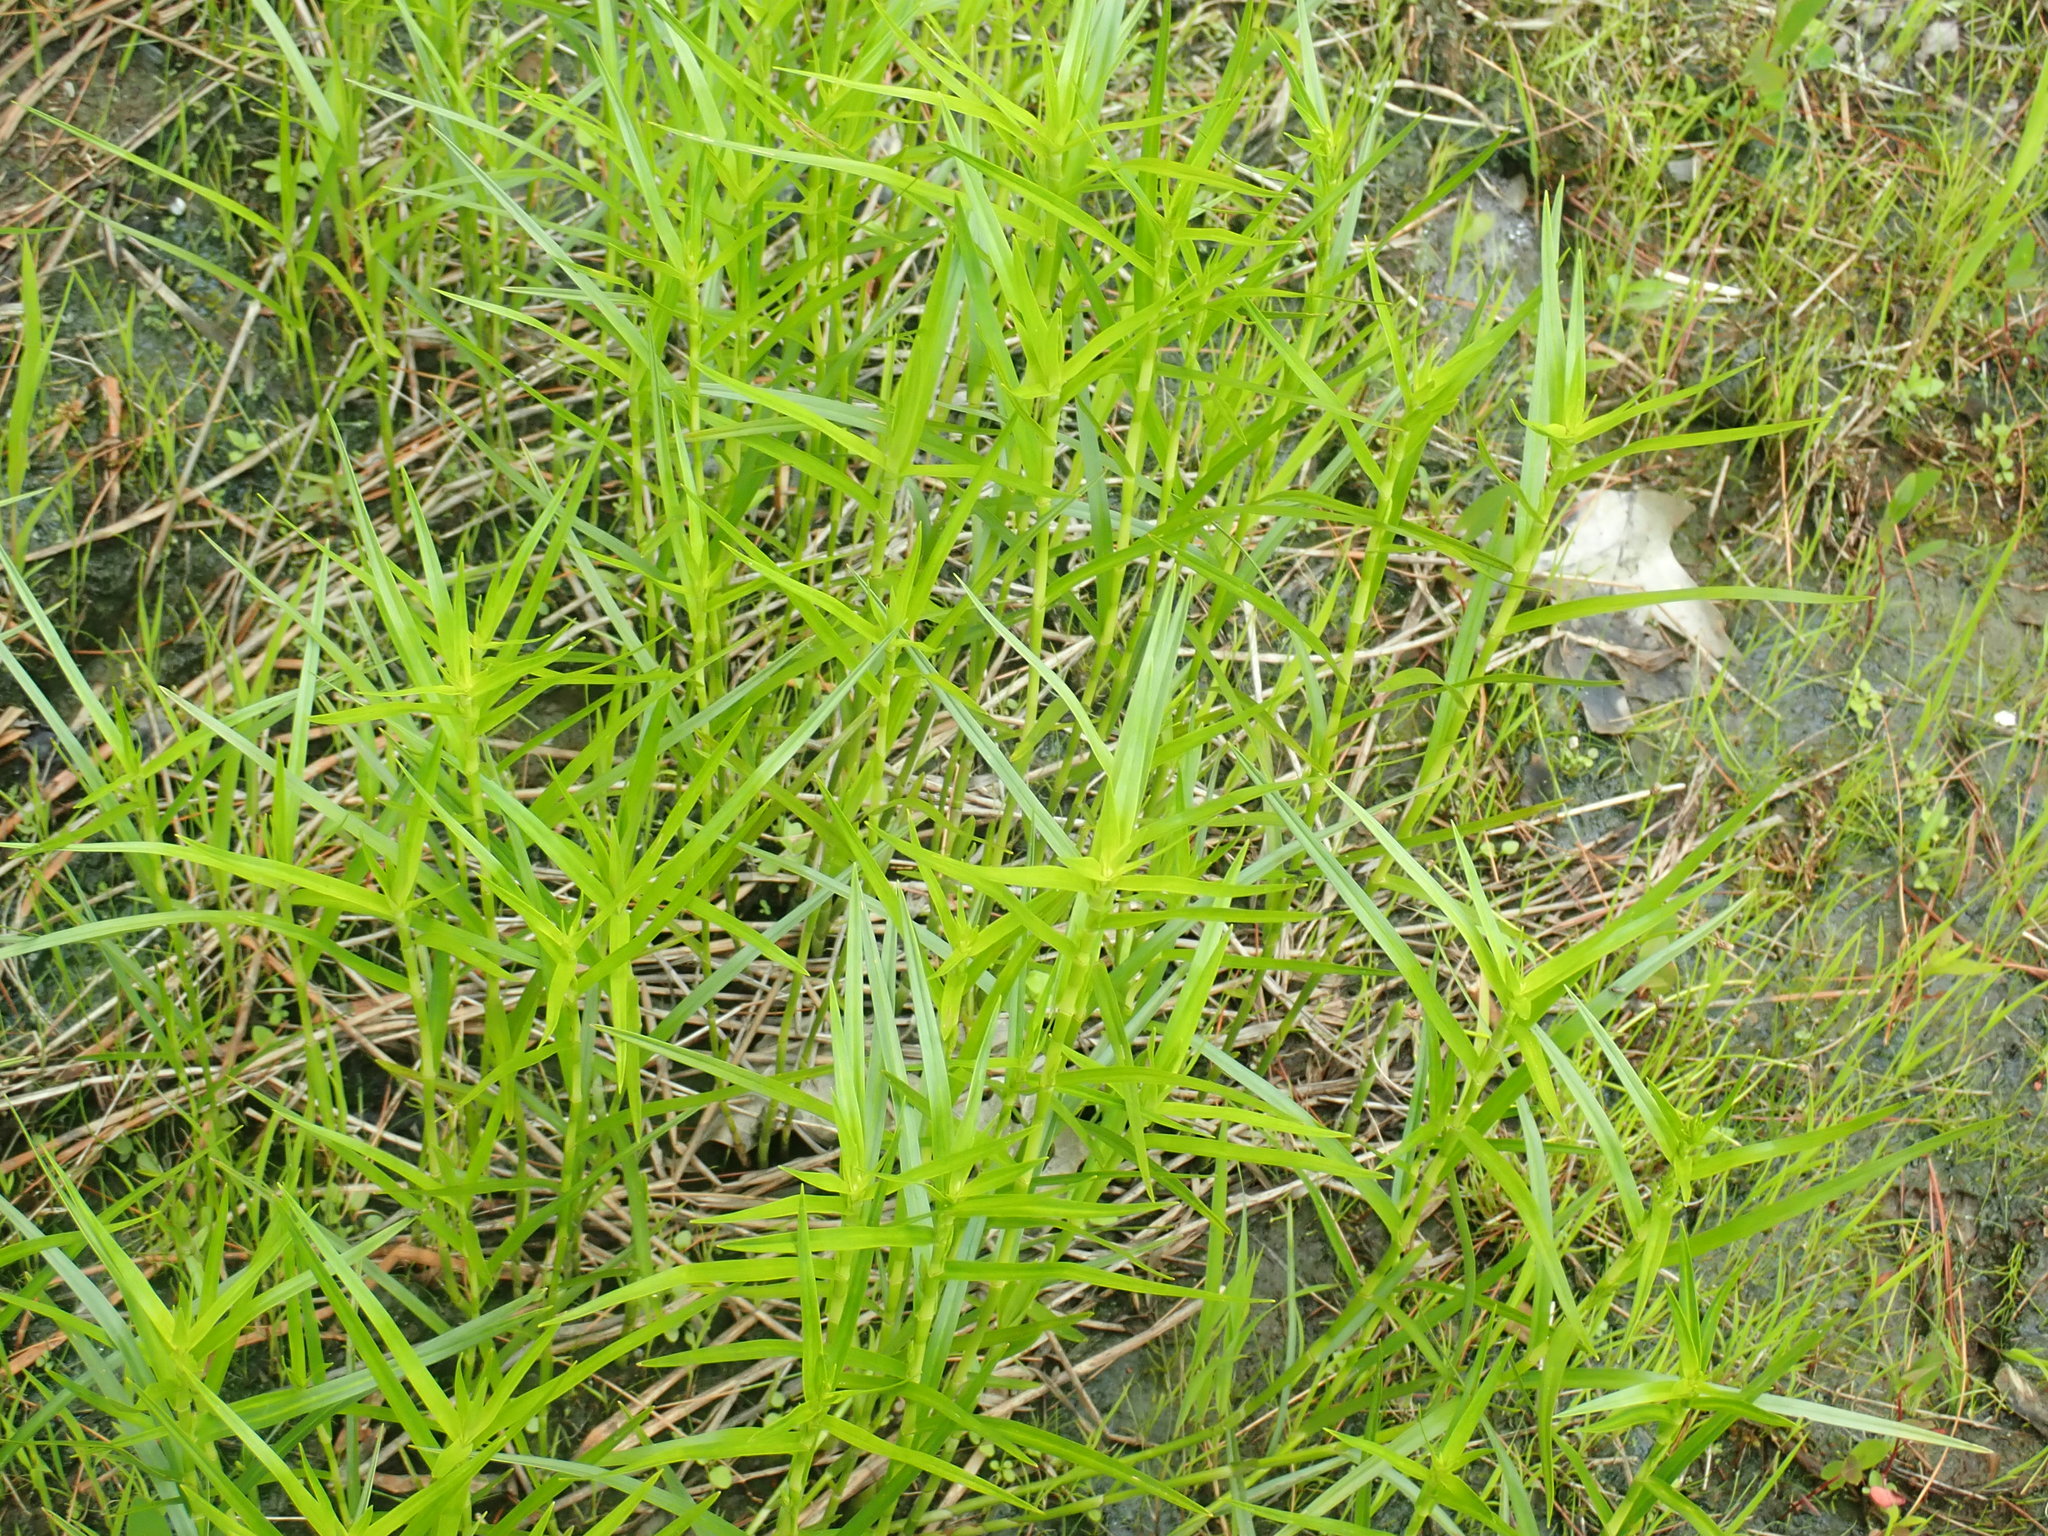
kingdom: Plantae
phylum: Tracheophyta
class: Liliopsida
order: Poales
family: Cyperaceae
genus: Dulichium
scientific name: Dulichium arundinaceum
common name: Three-way sedge
